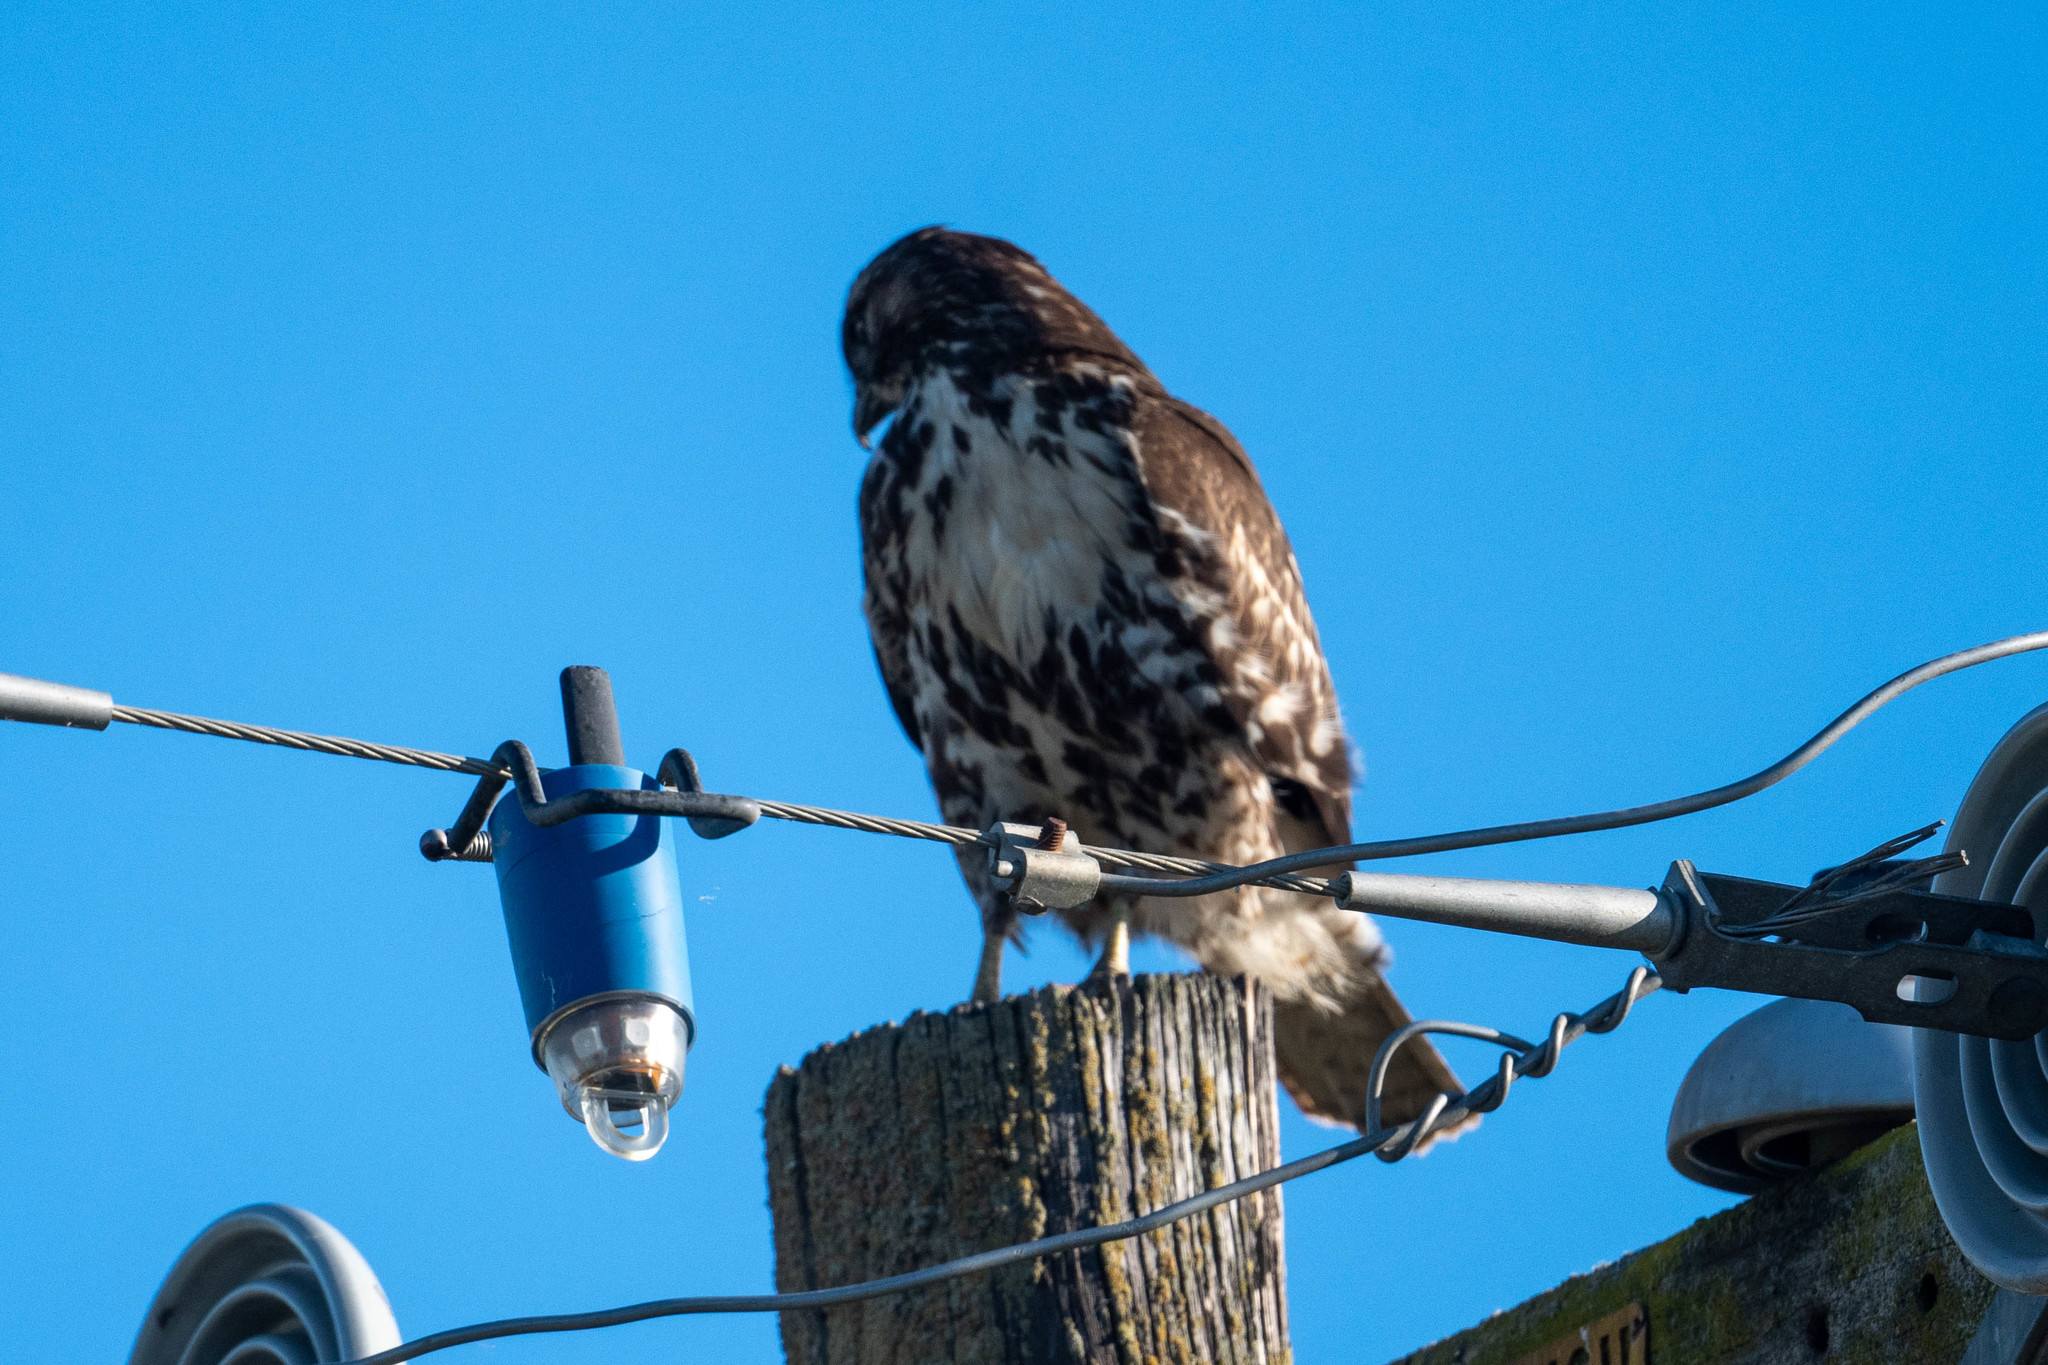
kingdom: Animalia
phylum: Chordata
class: Aves
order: Accipitriformes
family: Accipitridae
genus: Buteo
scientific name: Buteo jamaicensis
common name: Red-tailed hawk
